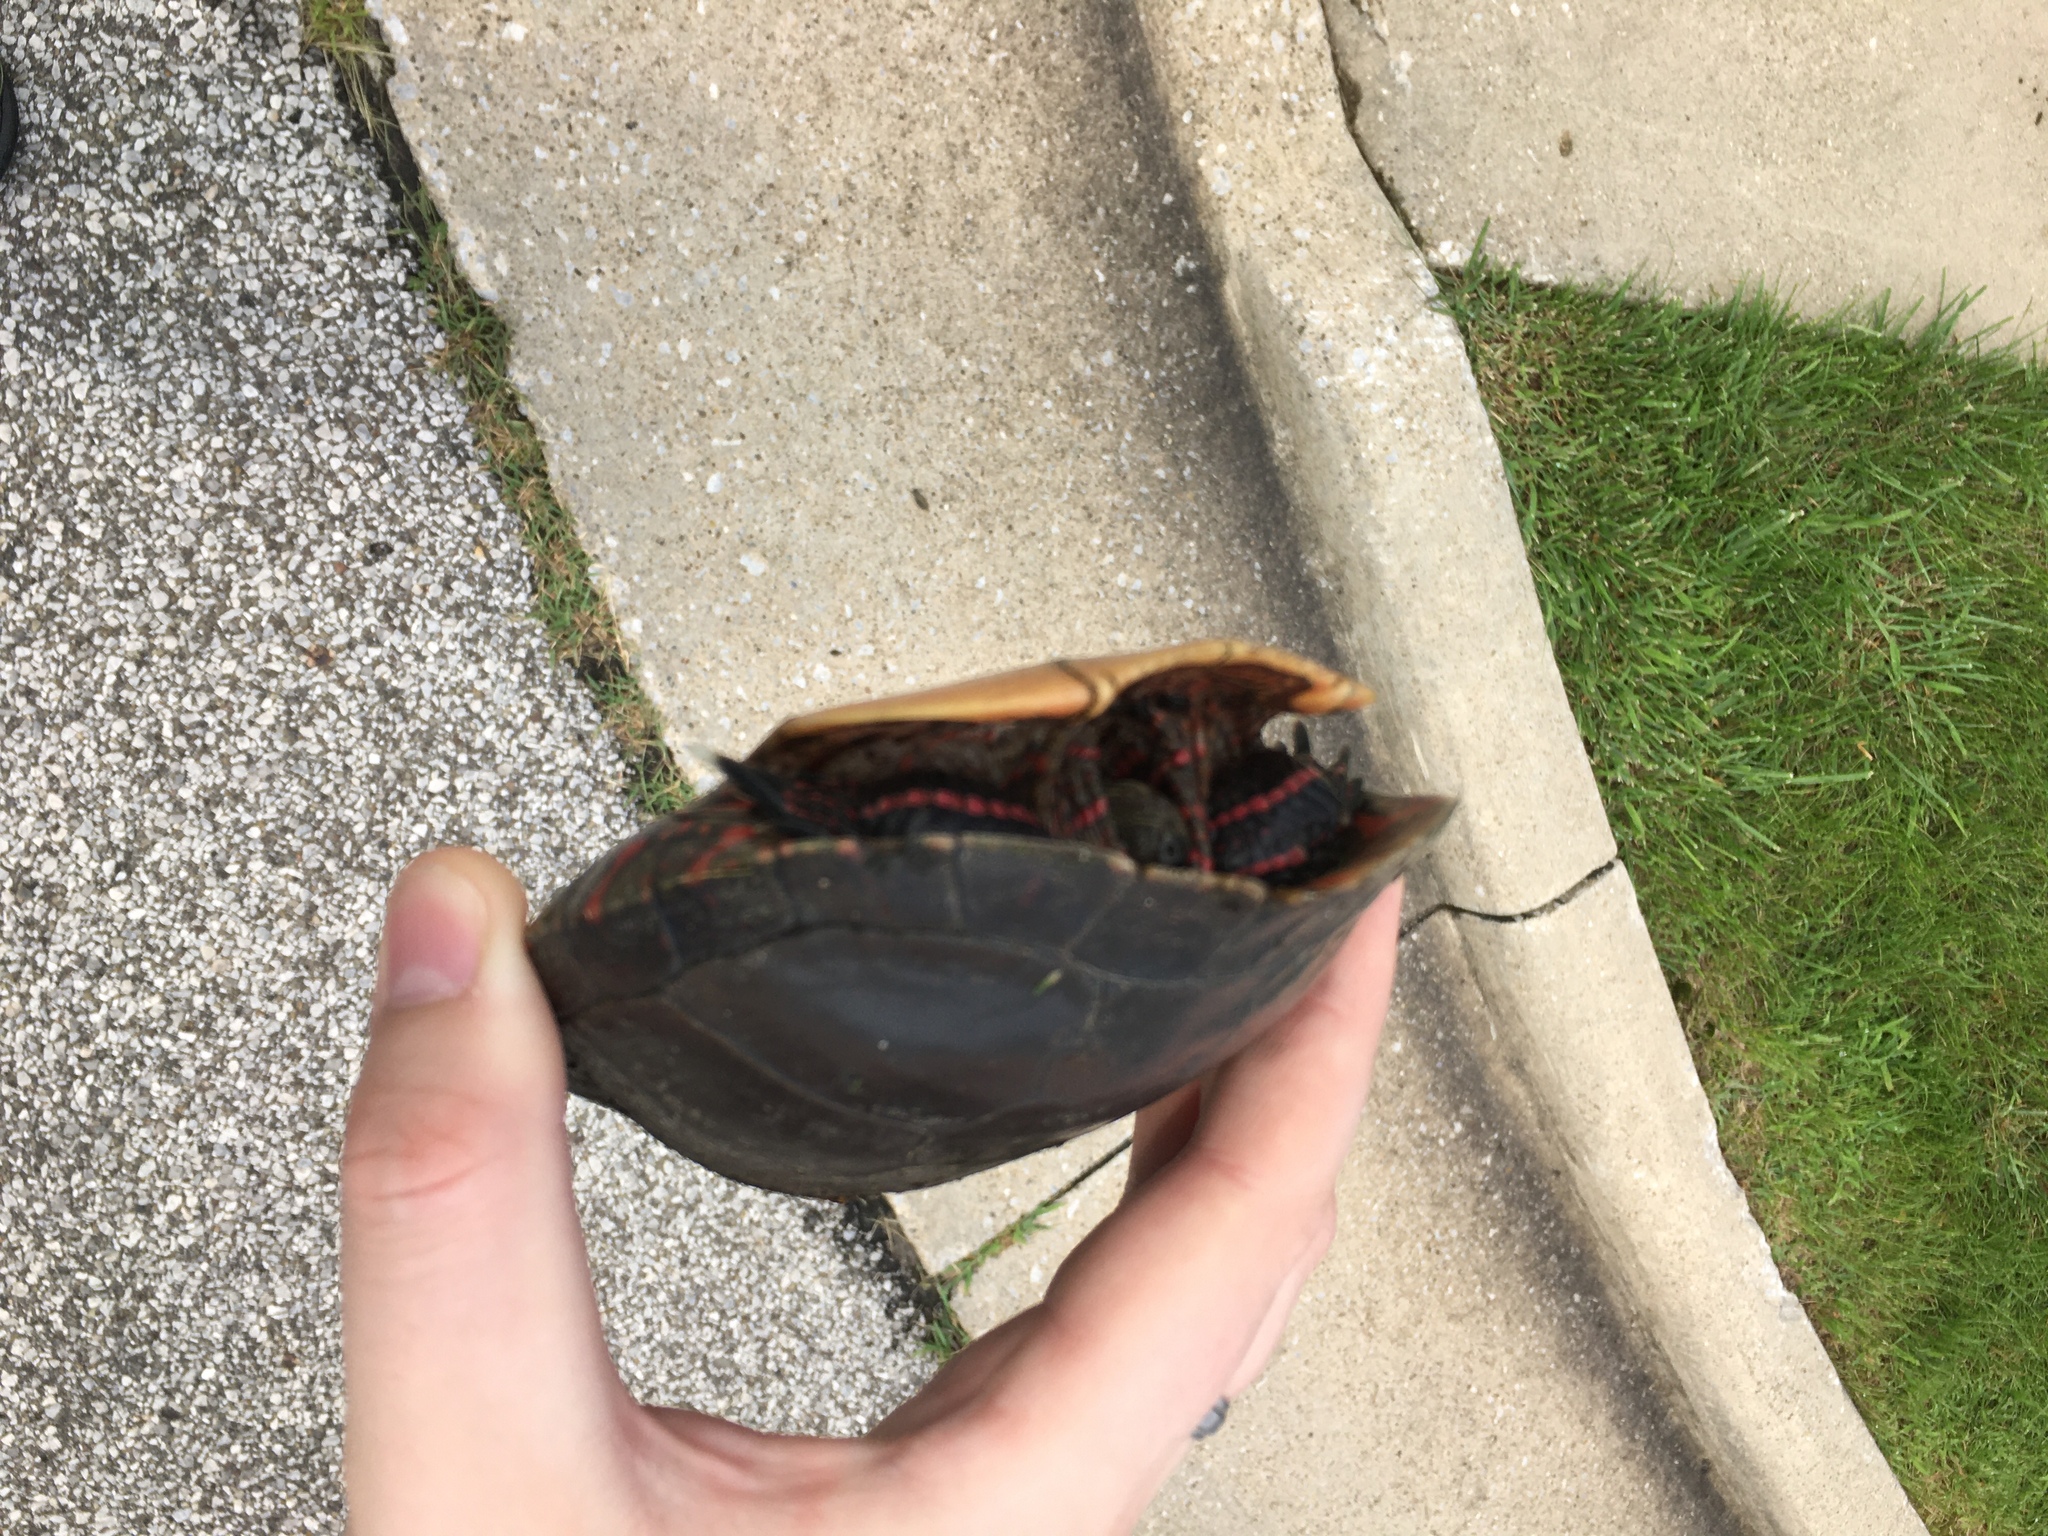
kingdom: Animalia
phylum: Chordata
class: Testudines
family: Emydidae
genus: Chrysemys
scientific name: Chrysemys picta
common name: Painted turtle
